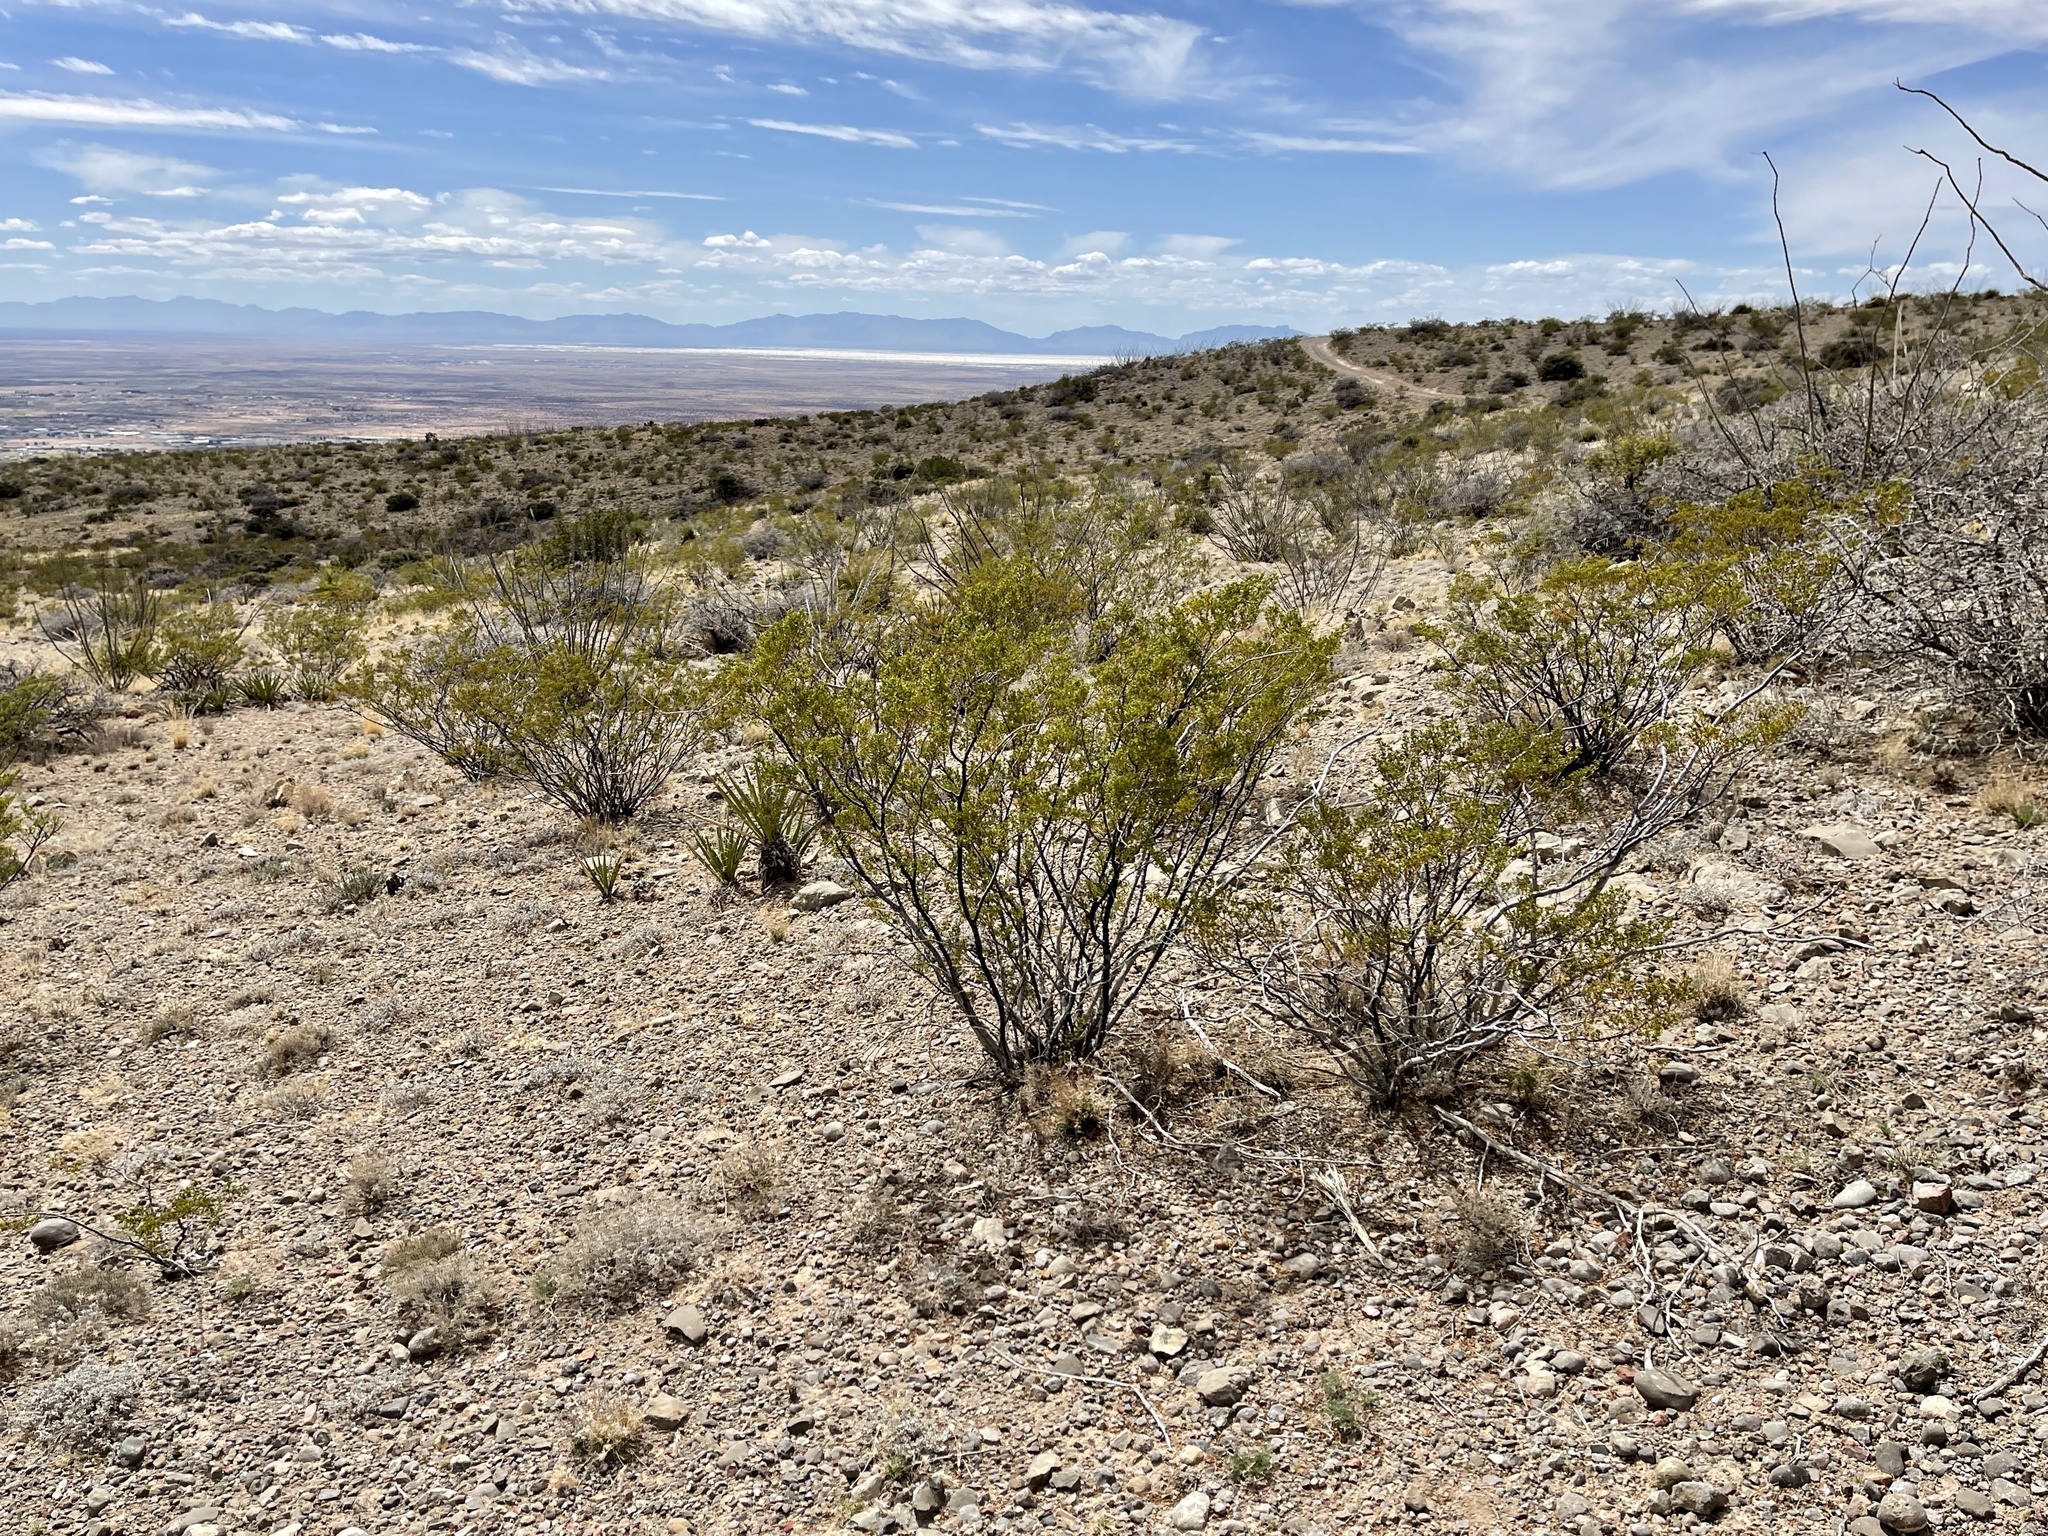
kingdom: Plantae
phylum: Tracheophyta
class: Magnoliopsida
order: Zygophyllales
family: Zygophyllaceae
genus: Larrea
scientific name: Larrea tridentata
